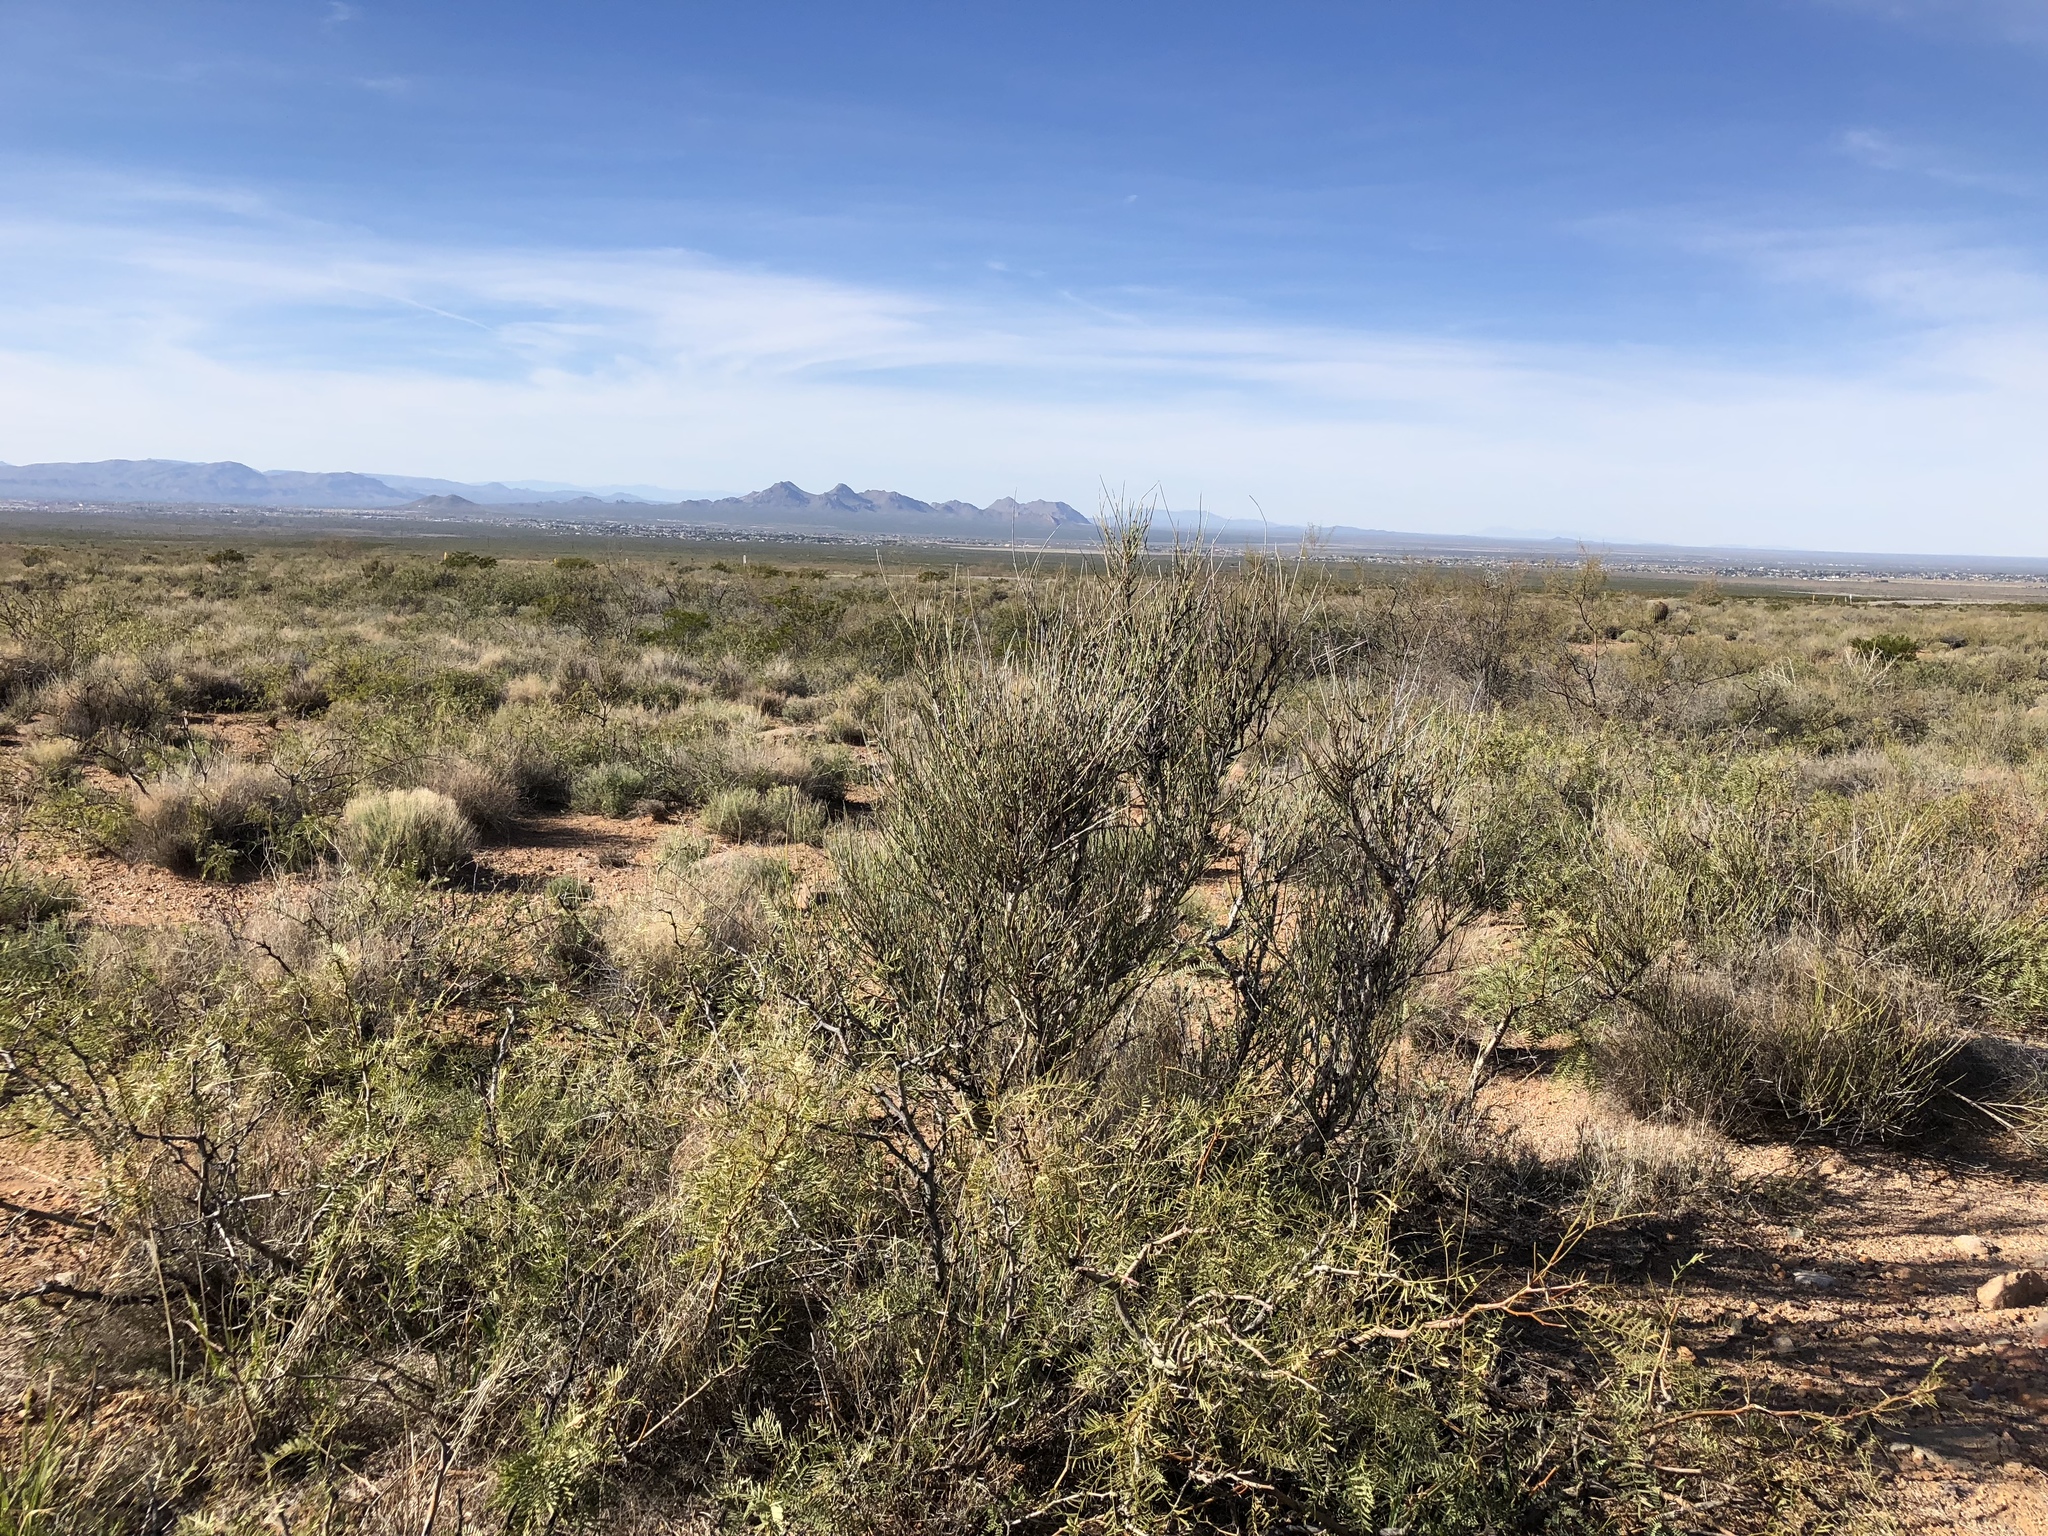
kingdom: Plantae
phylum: Tracheophyta
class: Gnetopsida
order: Ephedrales
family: Ephedraceae
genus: Ephedra
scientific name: Ephedra trifurca
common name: Mexican-tea
